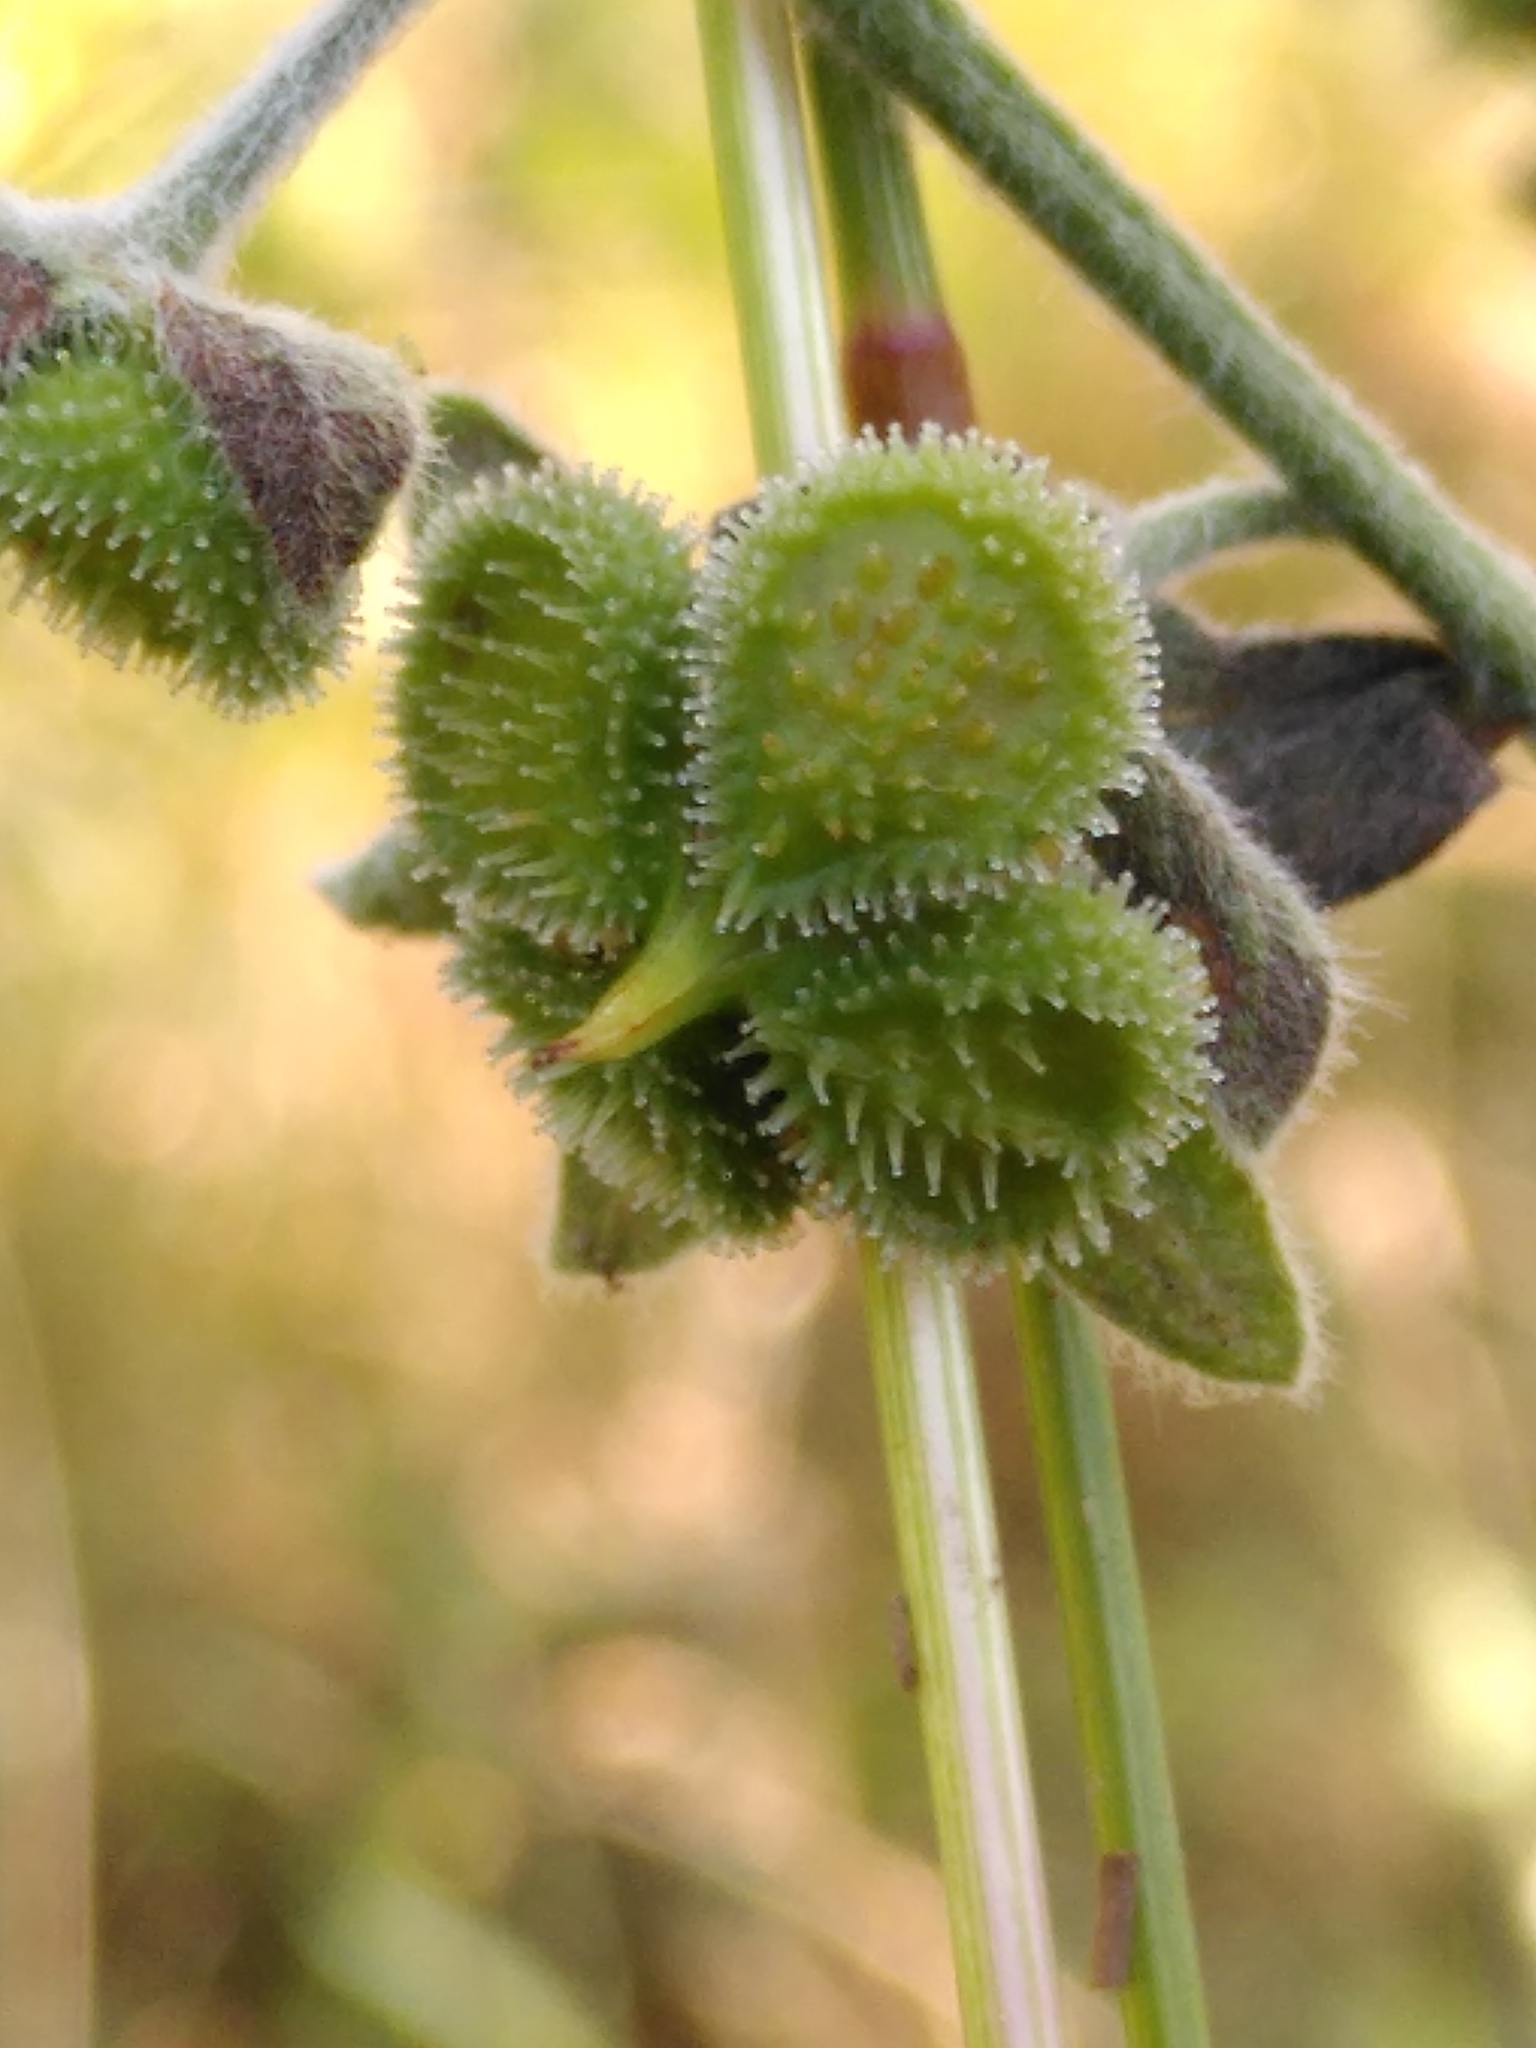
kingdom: Plantae
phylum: Tracheophyta
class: Magnoliopsida
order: Boraginales
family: Boraginaceae
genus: Cynoglossum
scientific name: Cynoglossum officinale
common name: Hound's-tongue
